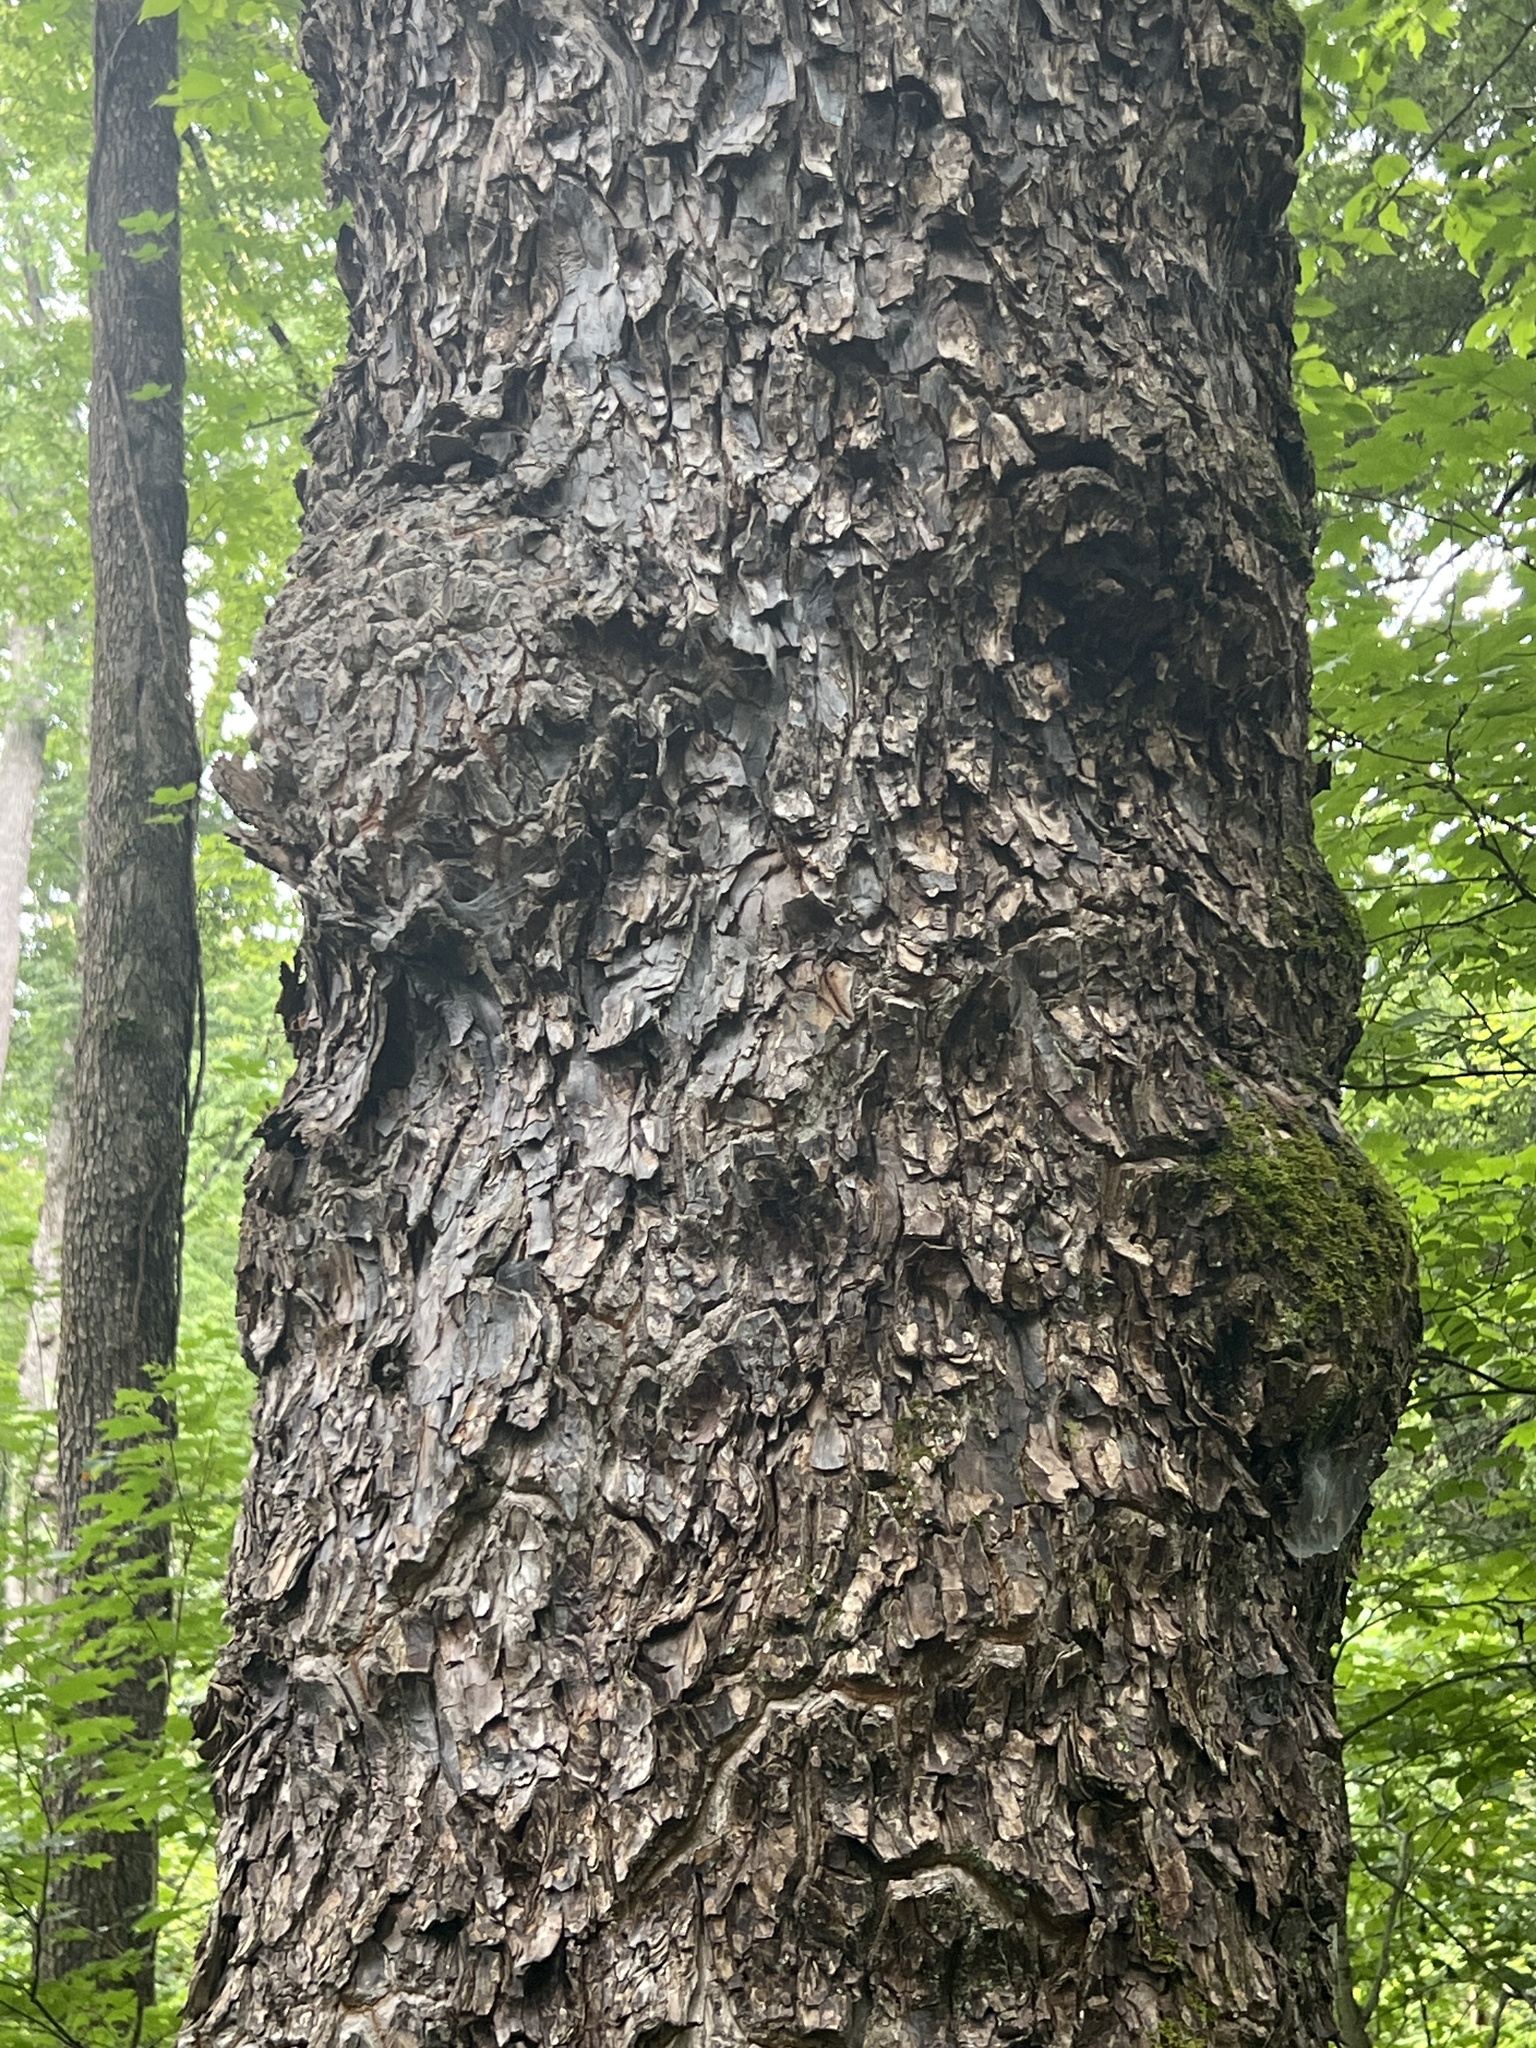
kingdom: Plantae
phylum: Tracheophyta
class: Magnoliopsida
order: Ericales
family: Styracaceae
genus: Halesia
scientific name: Halesia tetraptera
